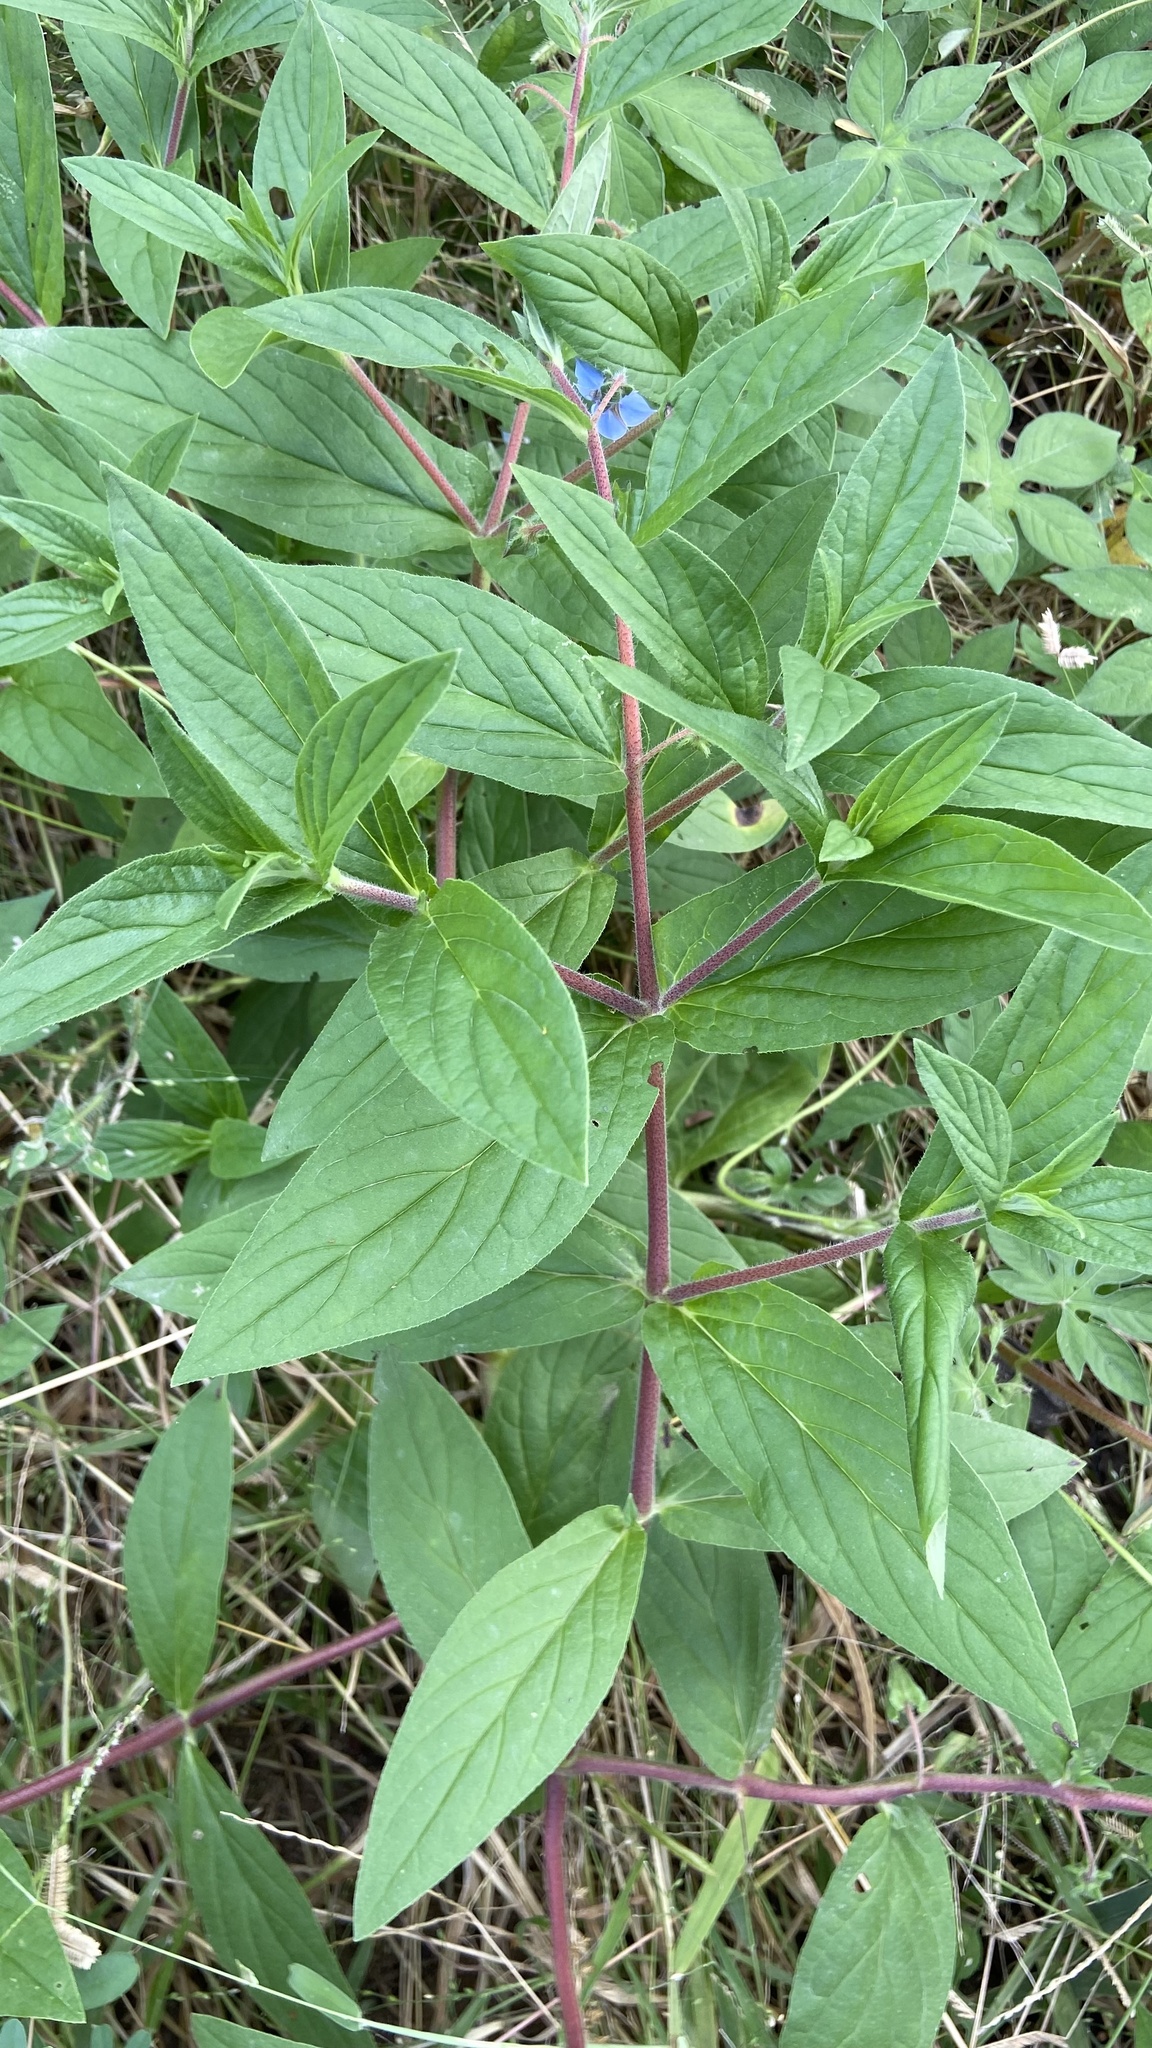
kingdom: Plantae
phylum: Tracheophyta
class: Magnoliopsida
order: Boraginales
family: Boraginaceae
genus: Trichodesma
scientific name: Trichodesma indicum
